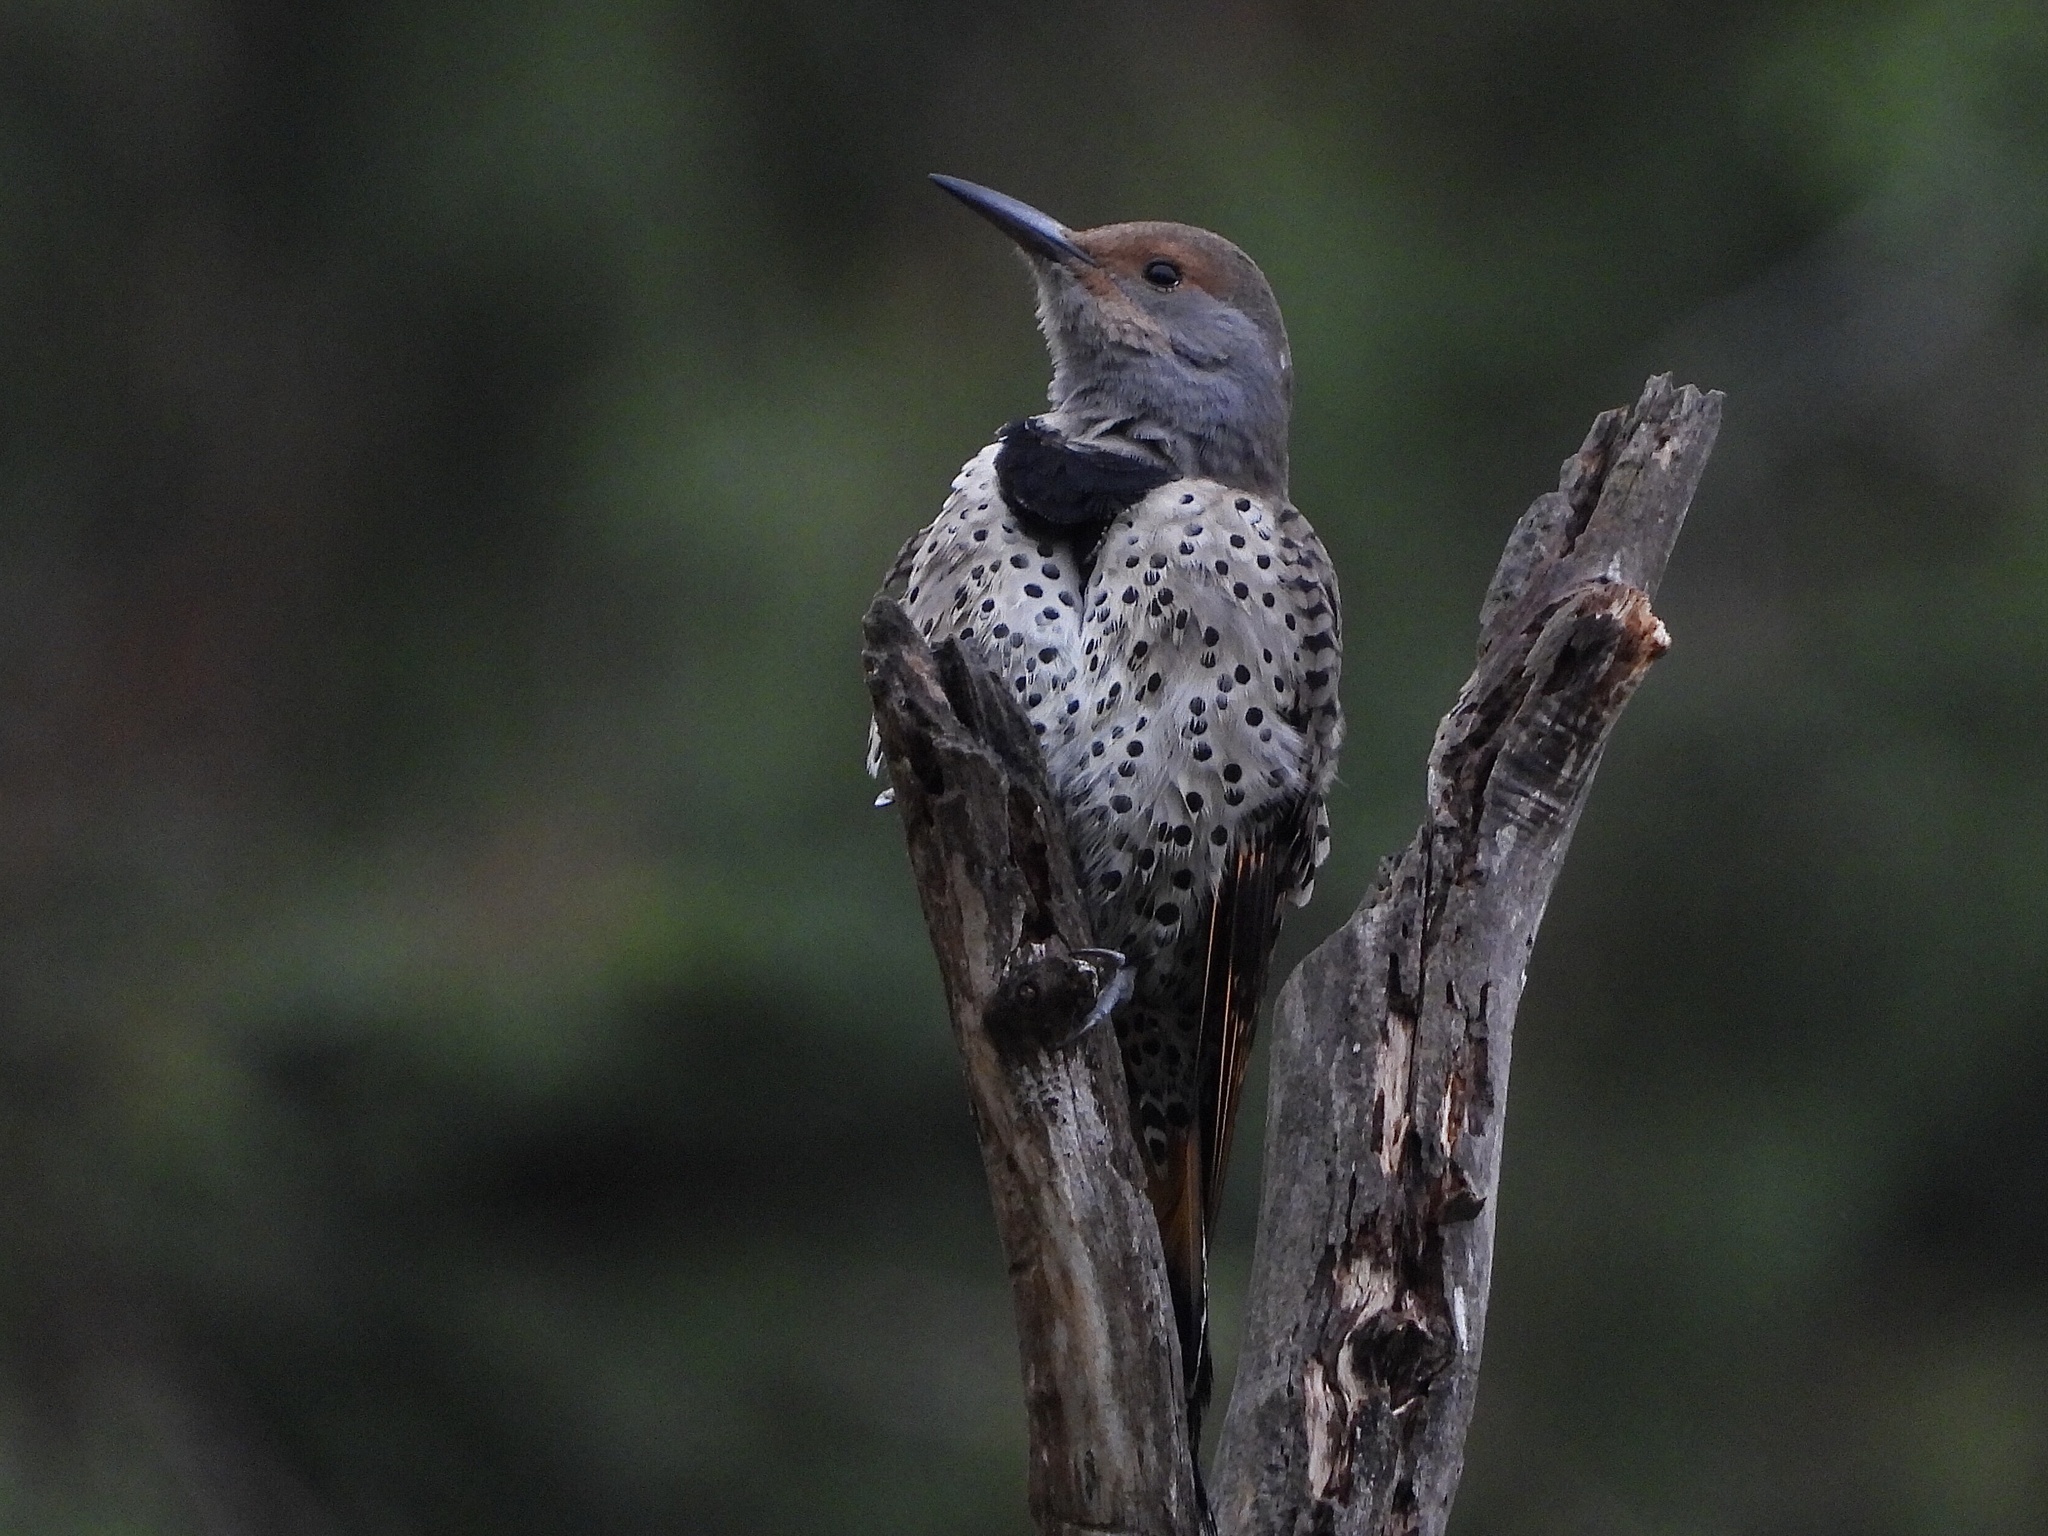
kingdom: Animalia
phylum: Chordata
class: Aves
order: Piciformes
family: Picidae
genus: Colaptes
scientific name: Colaptes auratus
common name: Northern flicker
